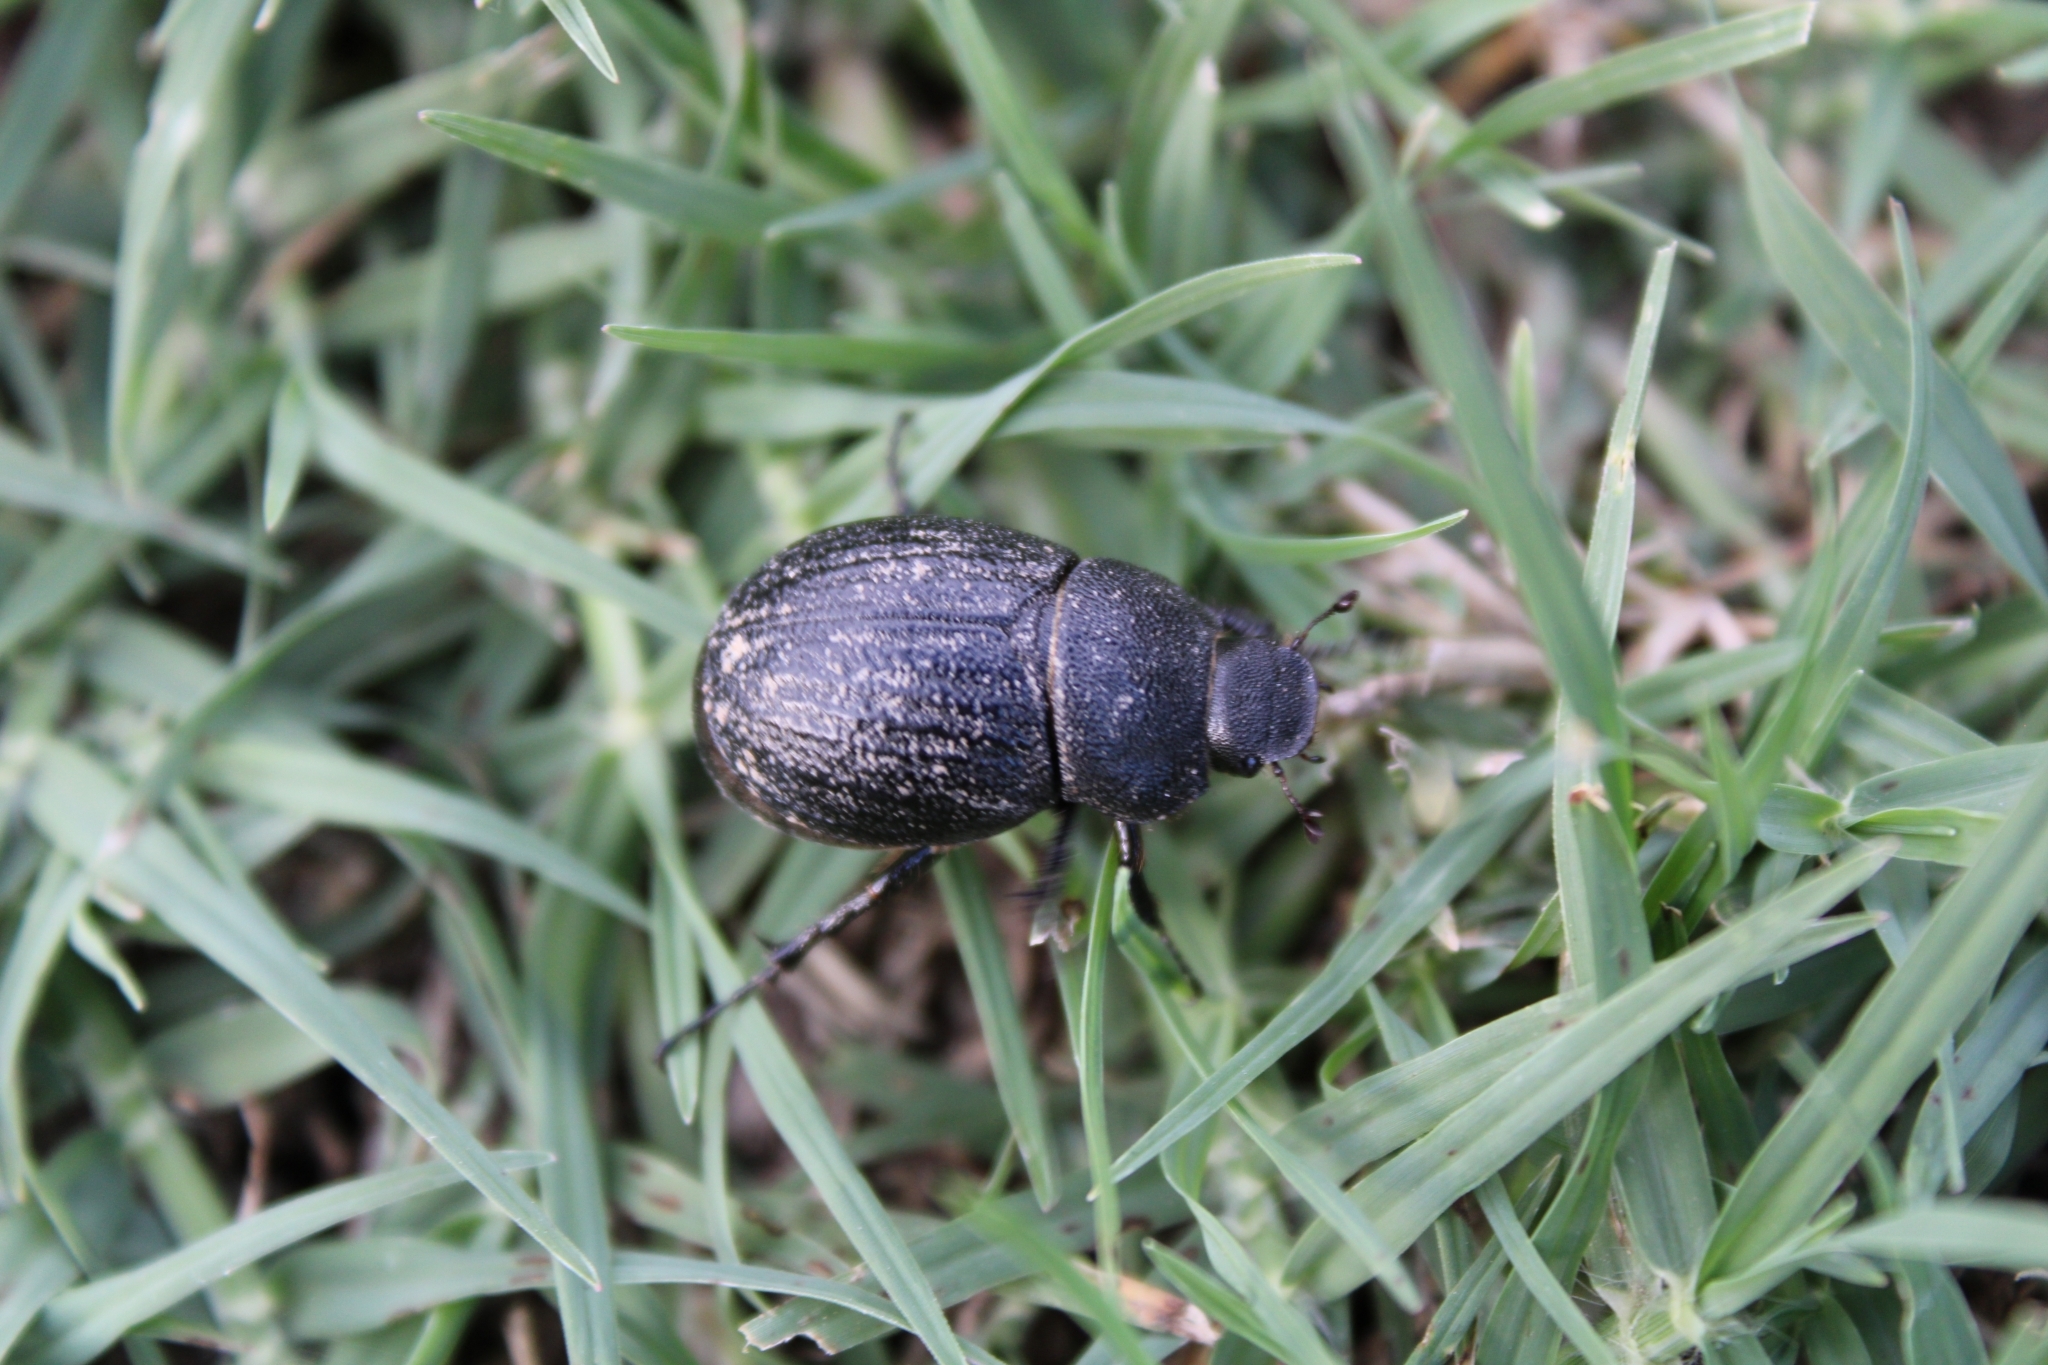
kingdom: Animalia
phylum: Arthropoda
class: Insecta
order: Coleoptera
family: Scarabaeidae
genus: Phyllophaga
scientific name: Phyllophaga cribrosa
